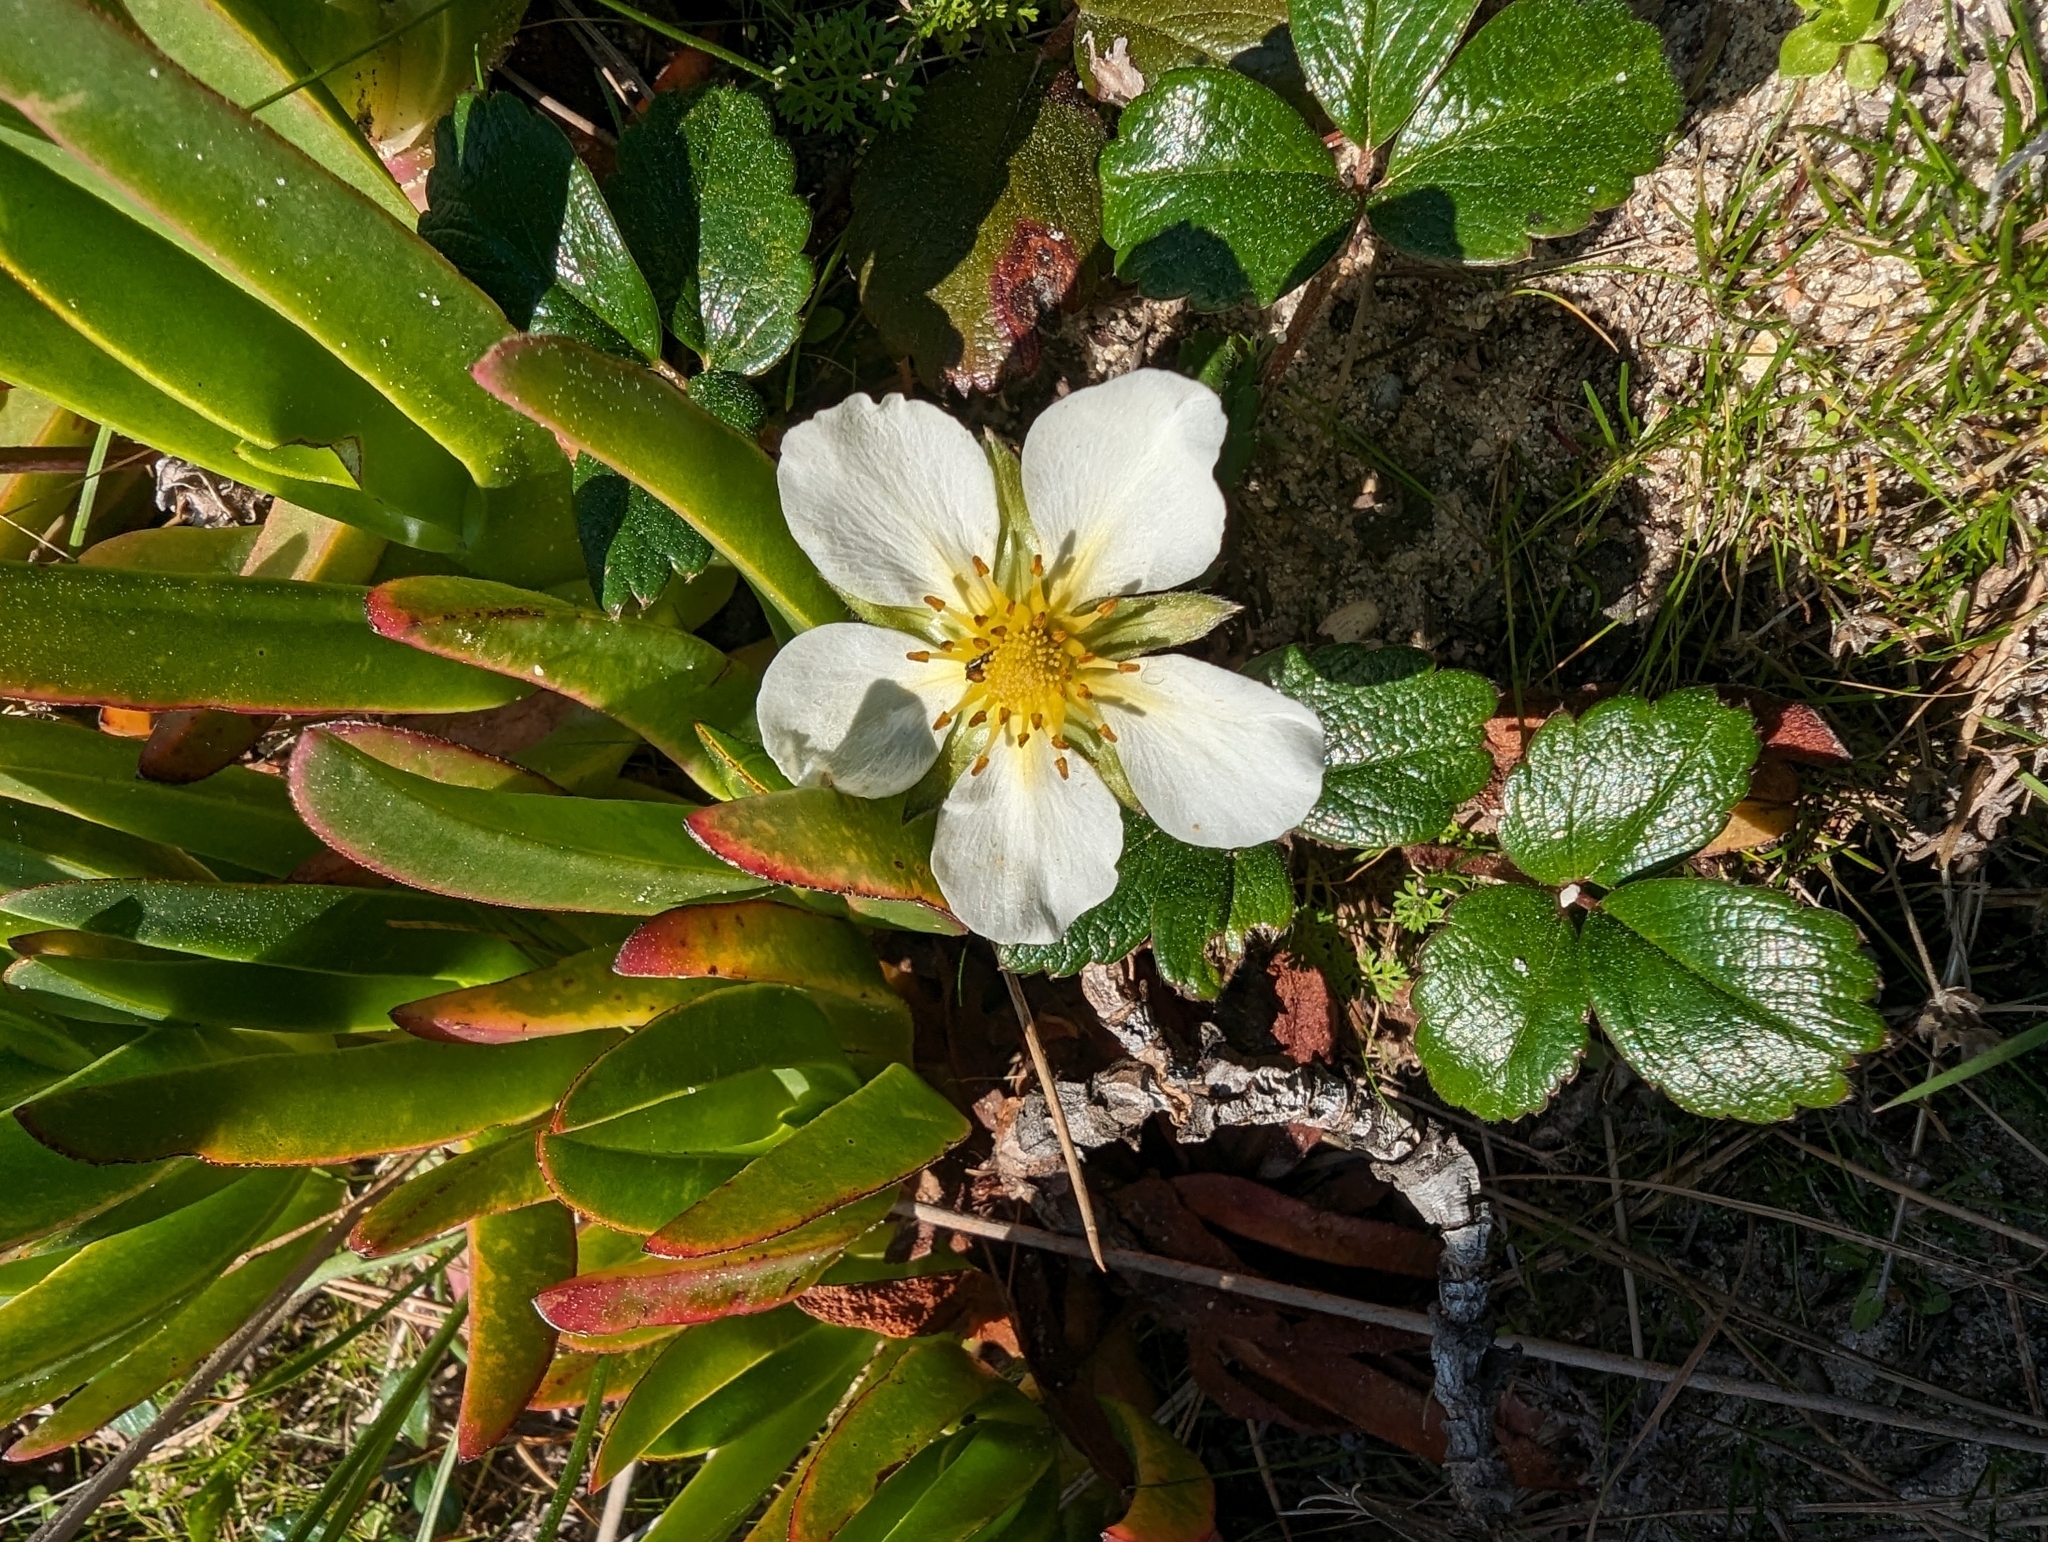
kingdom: Plantae
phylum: Tracheophyta
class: Magnoliopsida
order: Rosales
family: Rosaceae
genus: Fragaria
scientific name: Fragaria chiloensis
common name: Beach strawberry
